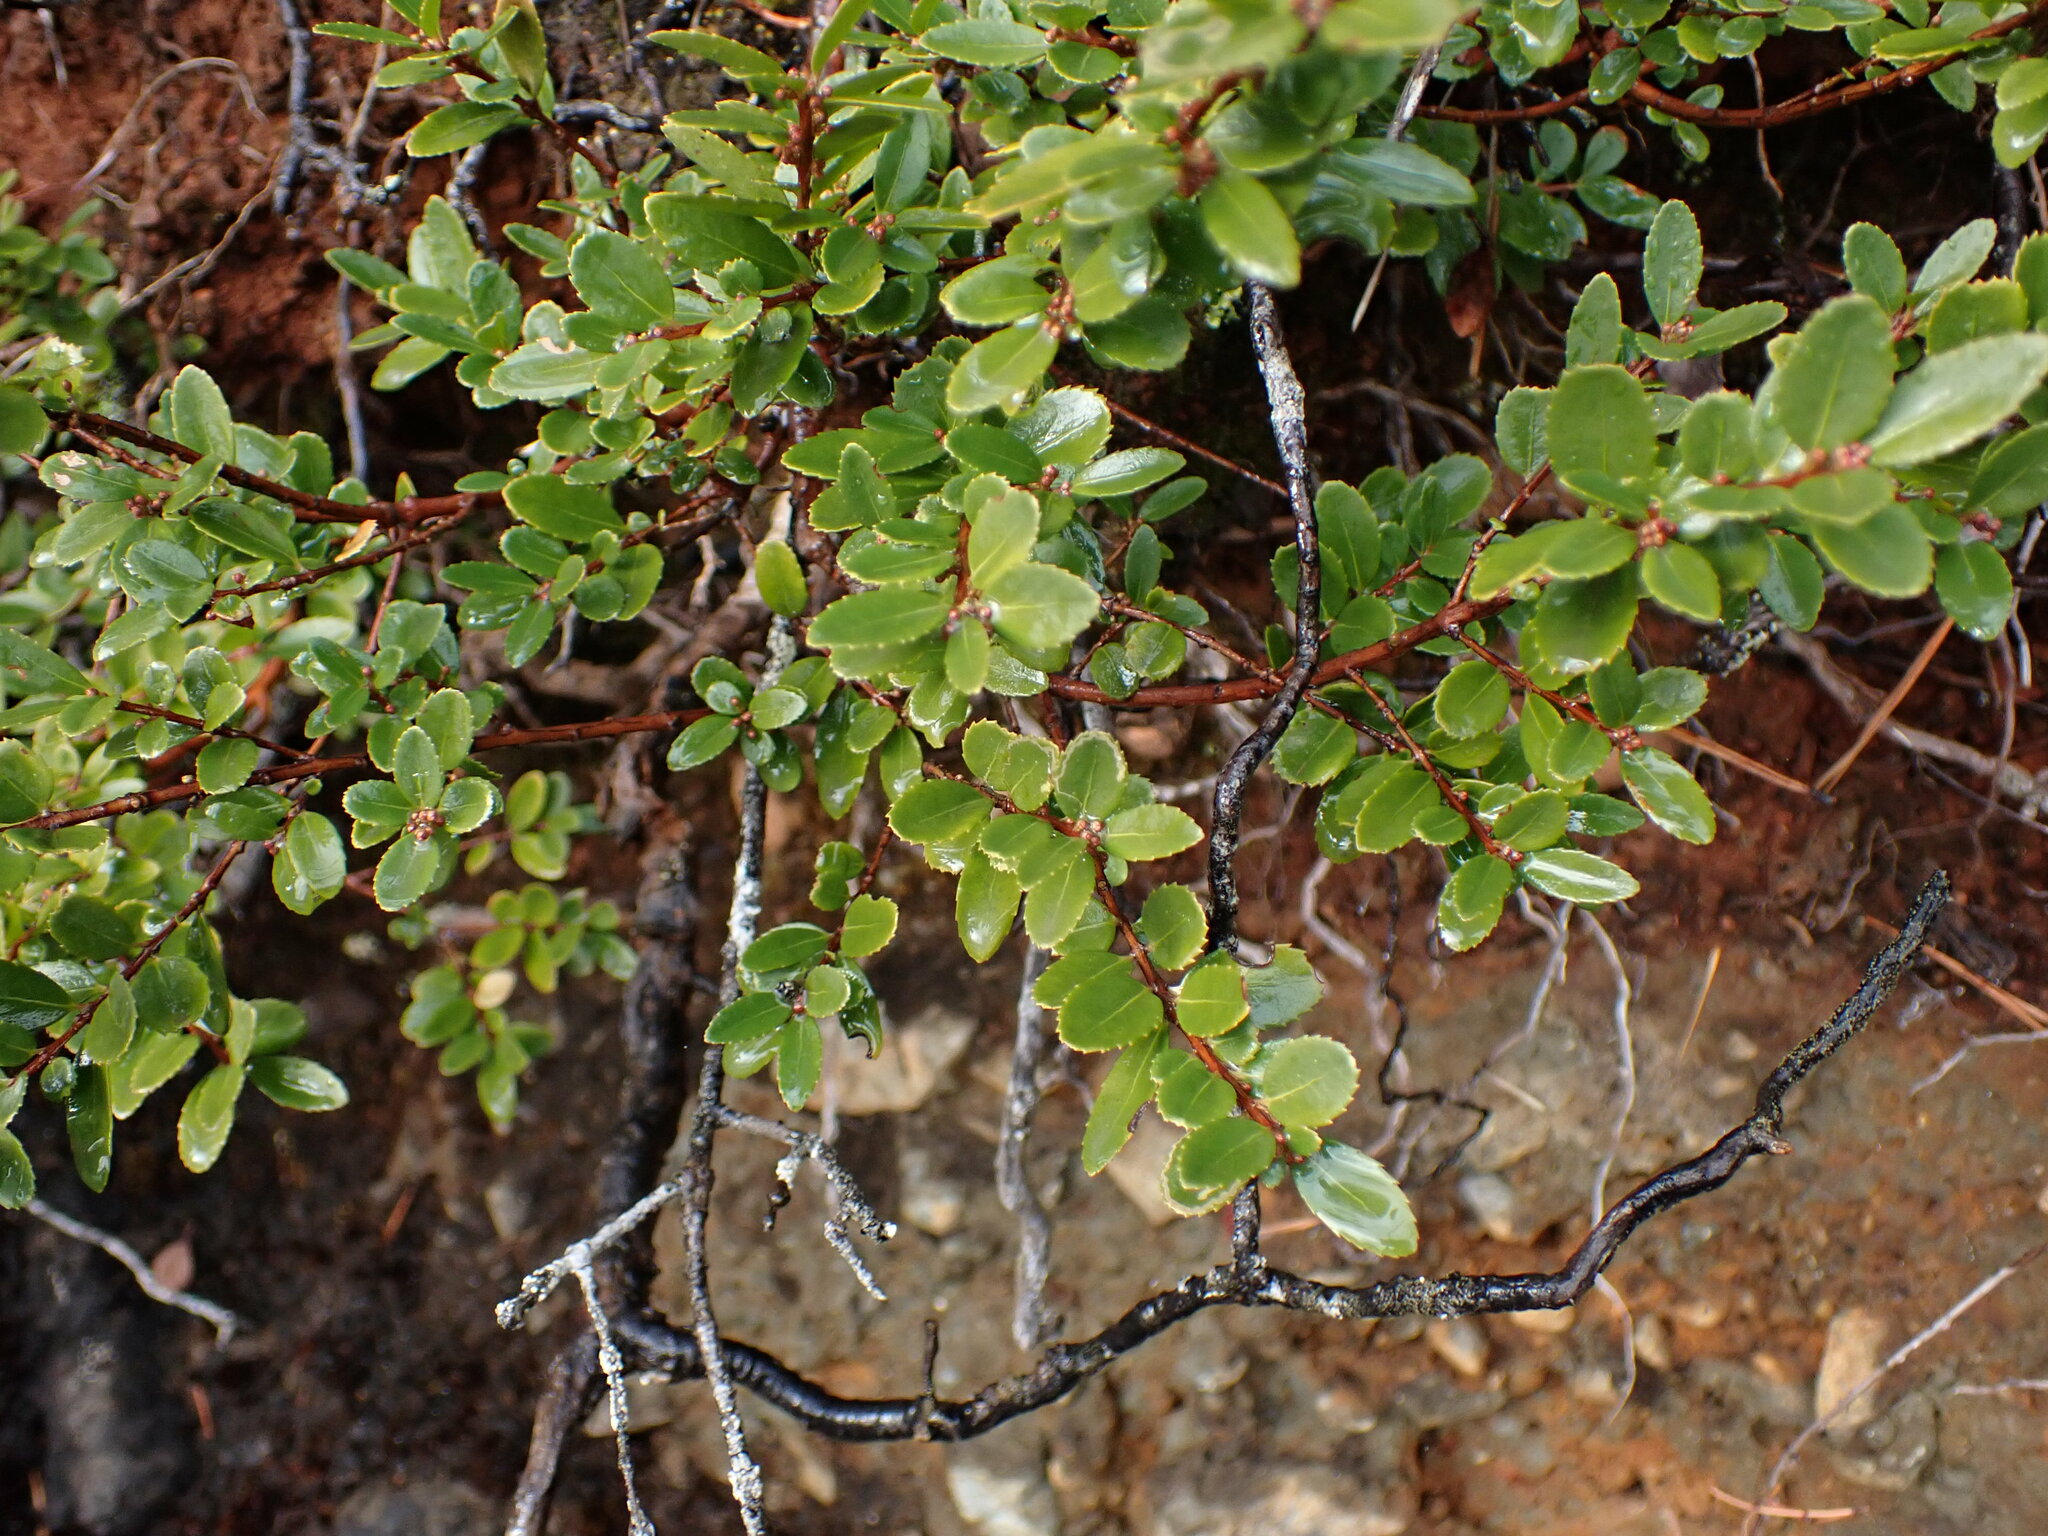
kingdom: Plantae
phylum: Tracheophyta
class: Magnoliopsida
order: Celastrales
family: Celastraceae
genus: Paxistima
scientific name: Paxistima myrsinites
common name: Mountain-lover
